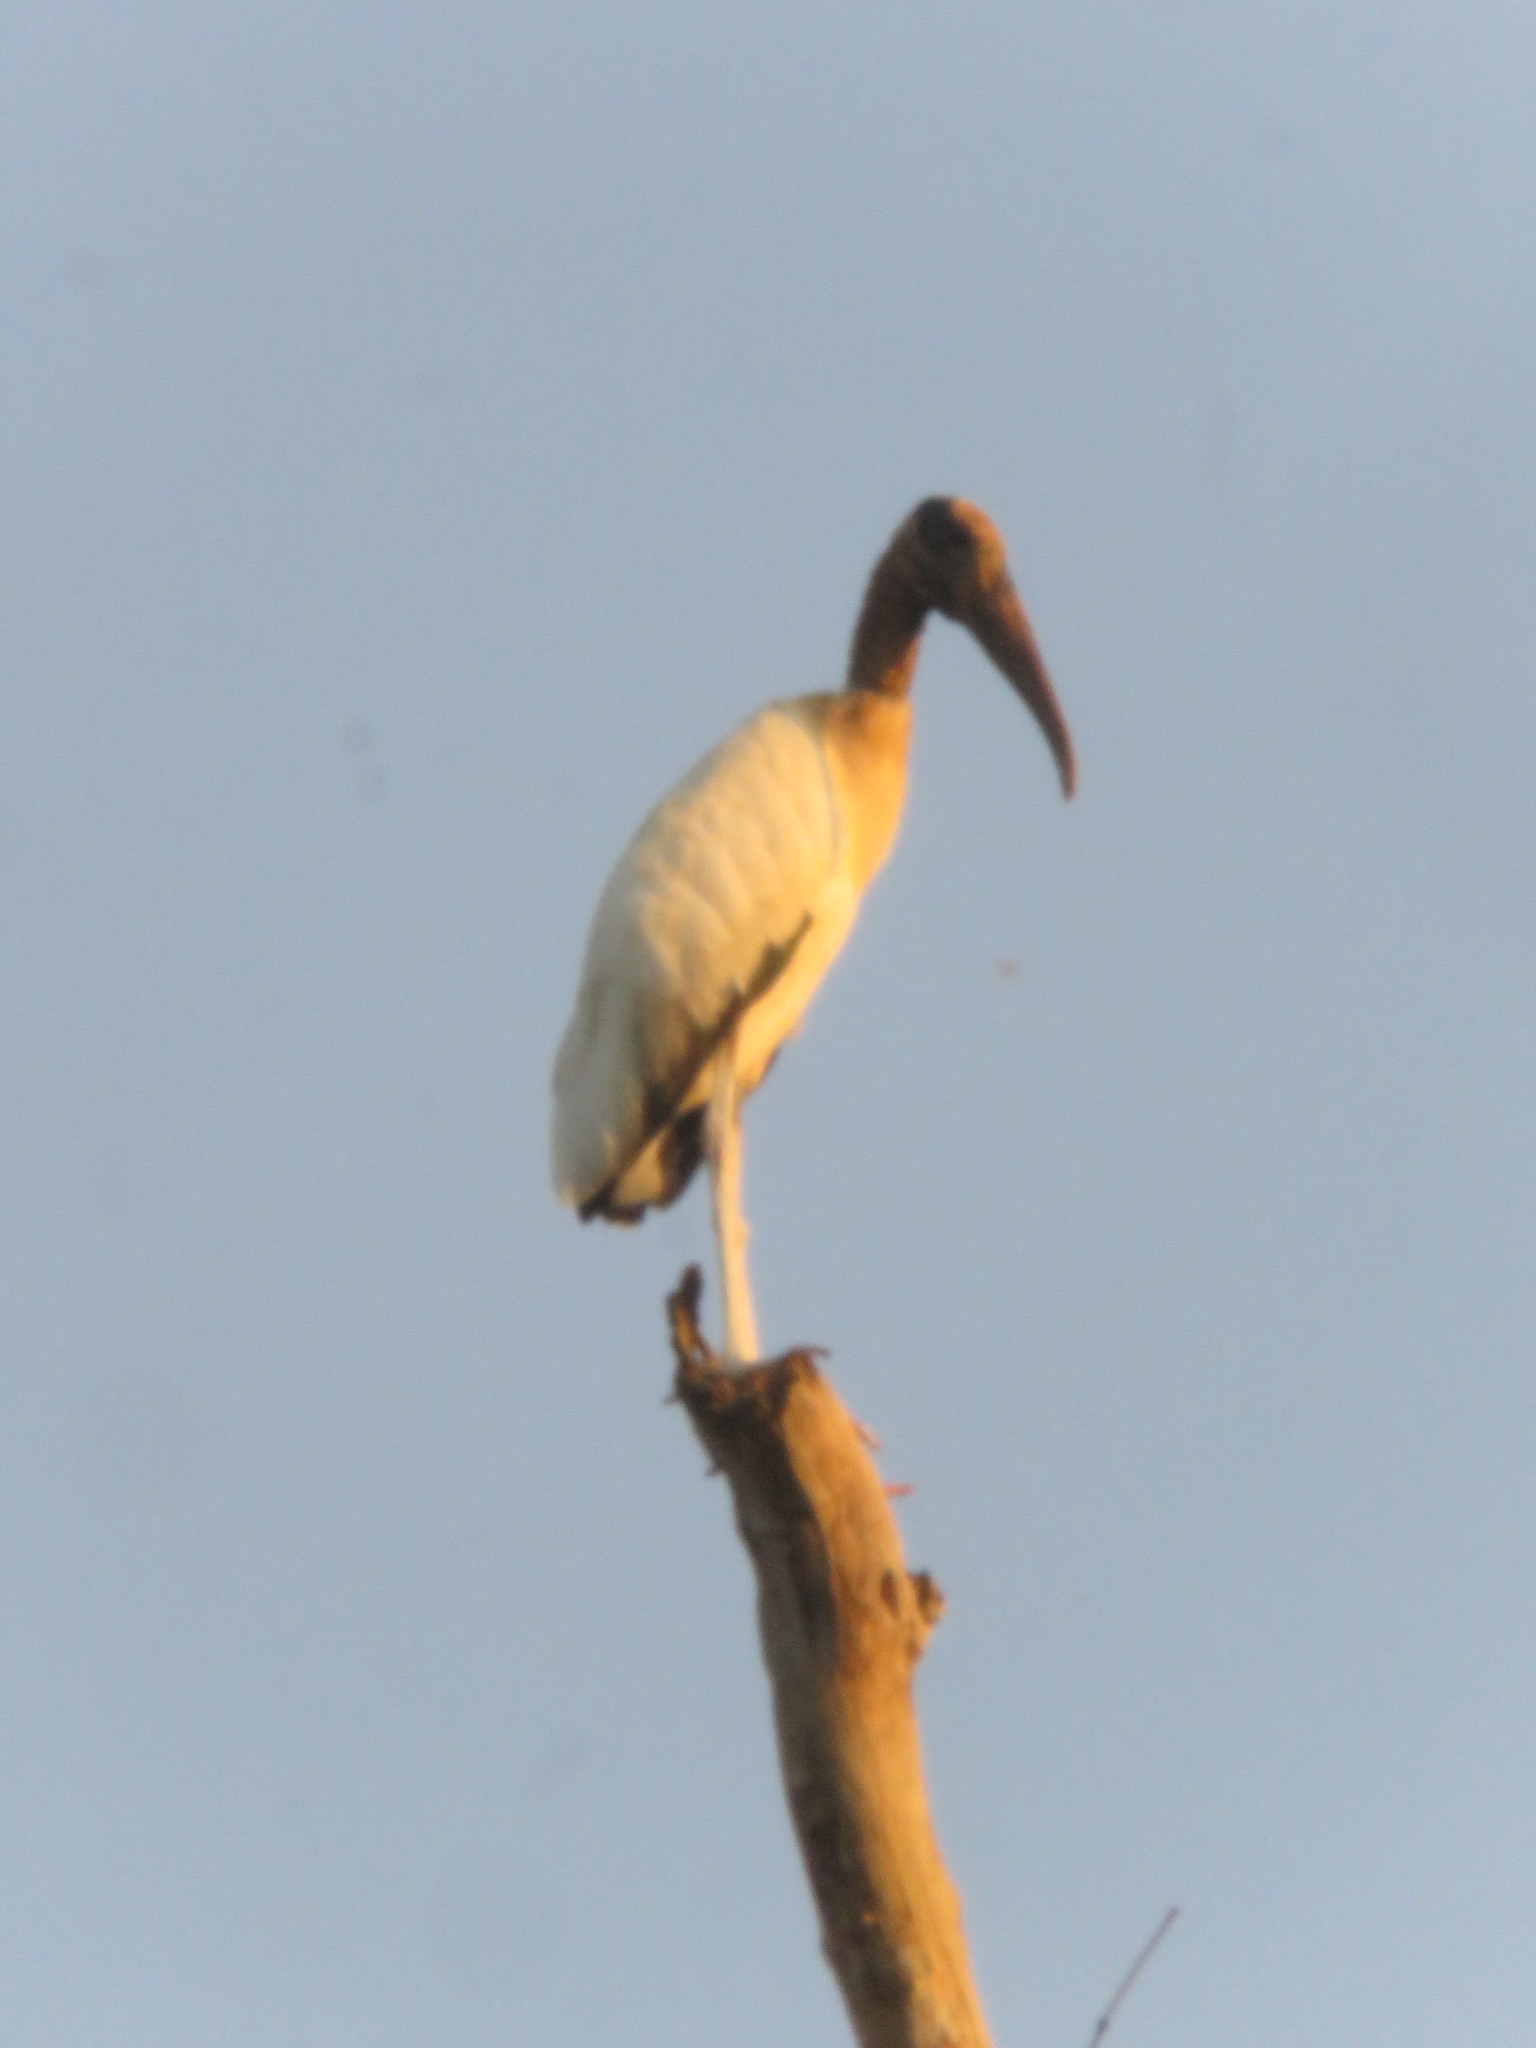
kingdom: Animalia
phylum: Chordata
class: Aves
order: Ciconiiformes
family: Ciconiidae
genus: Mycteria
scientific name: Mycteria americana
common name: Wood stork
